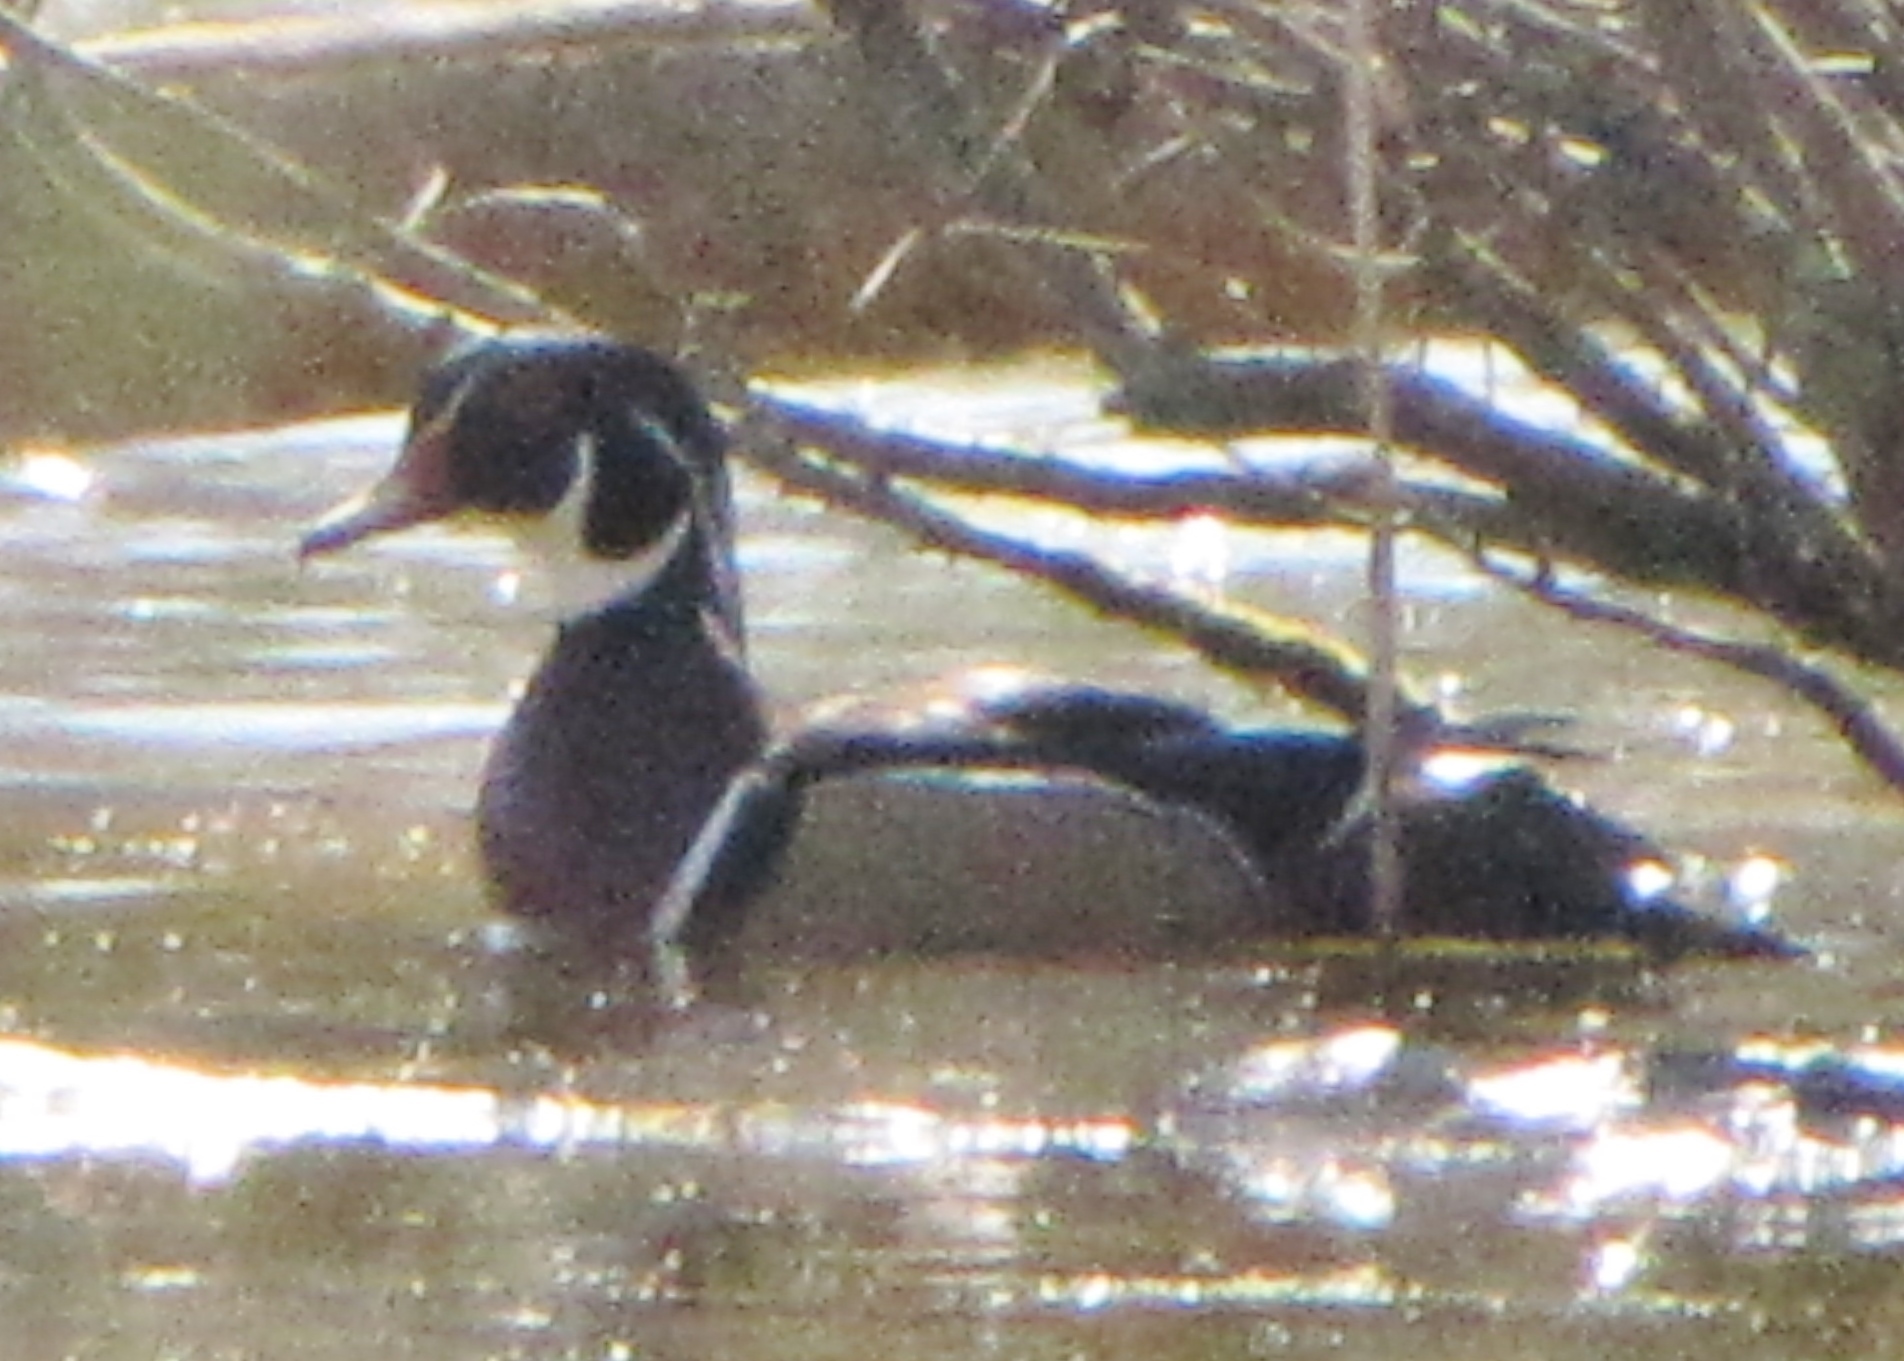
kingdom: Animalia
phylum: Chordata
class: Aves
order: Anseriformes
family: Anatidae
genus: Aix
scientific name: Aix sponsa
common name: Wood duck
